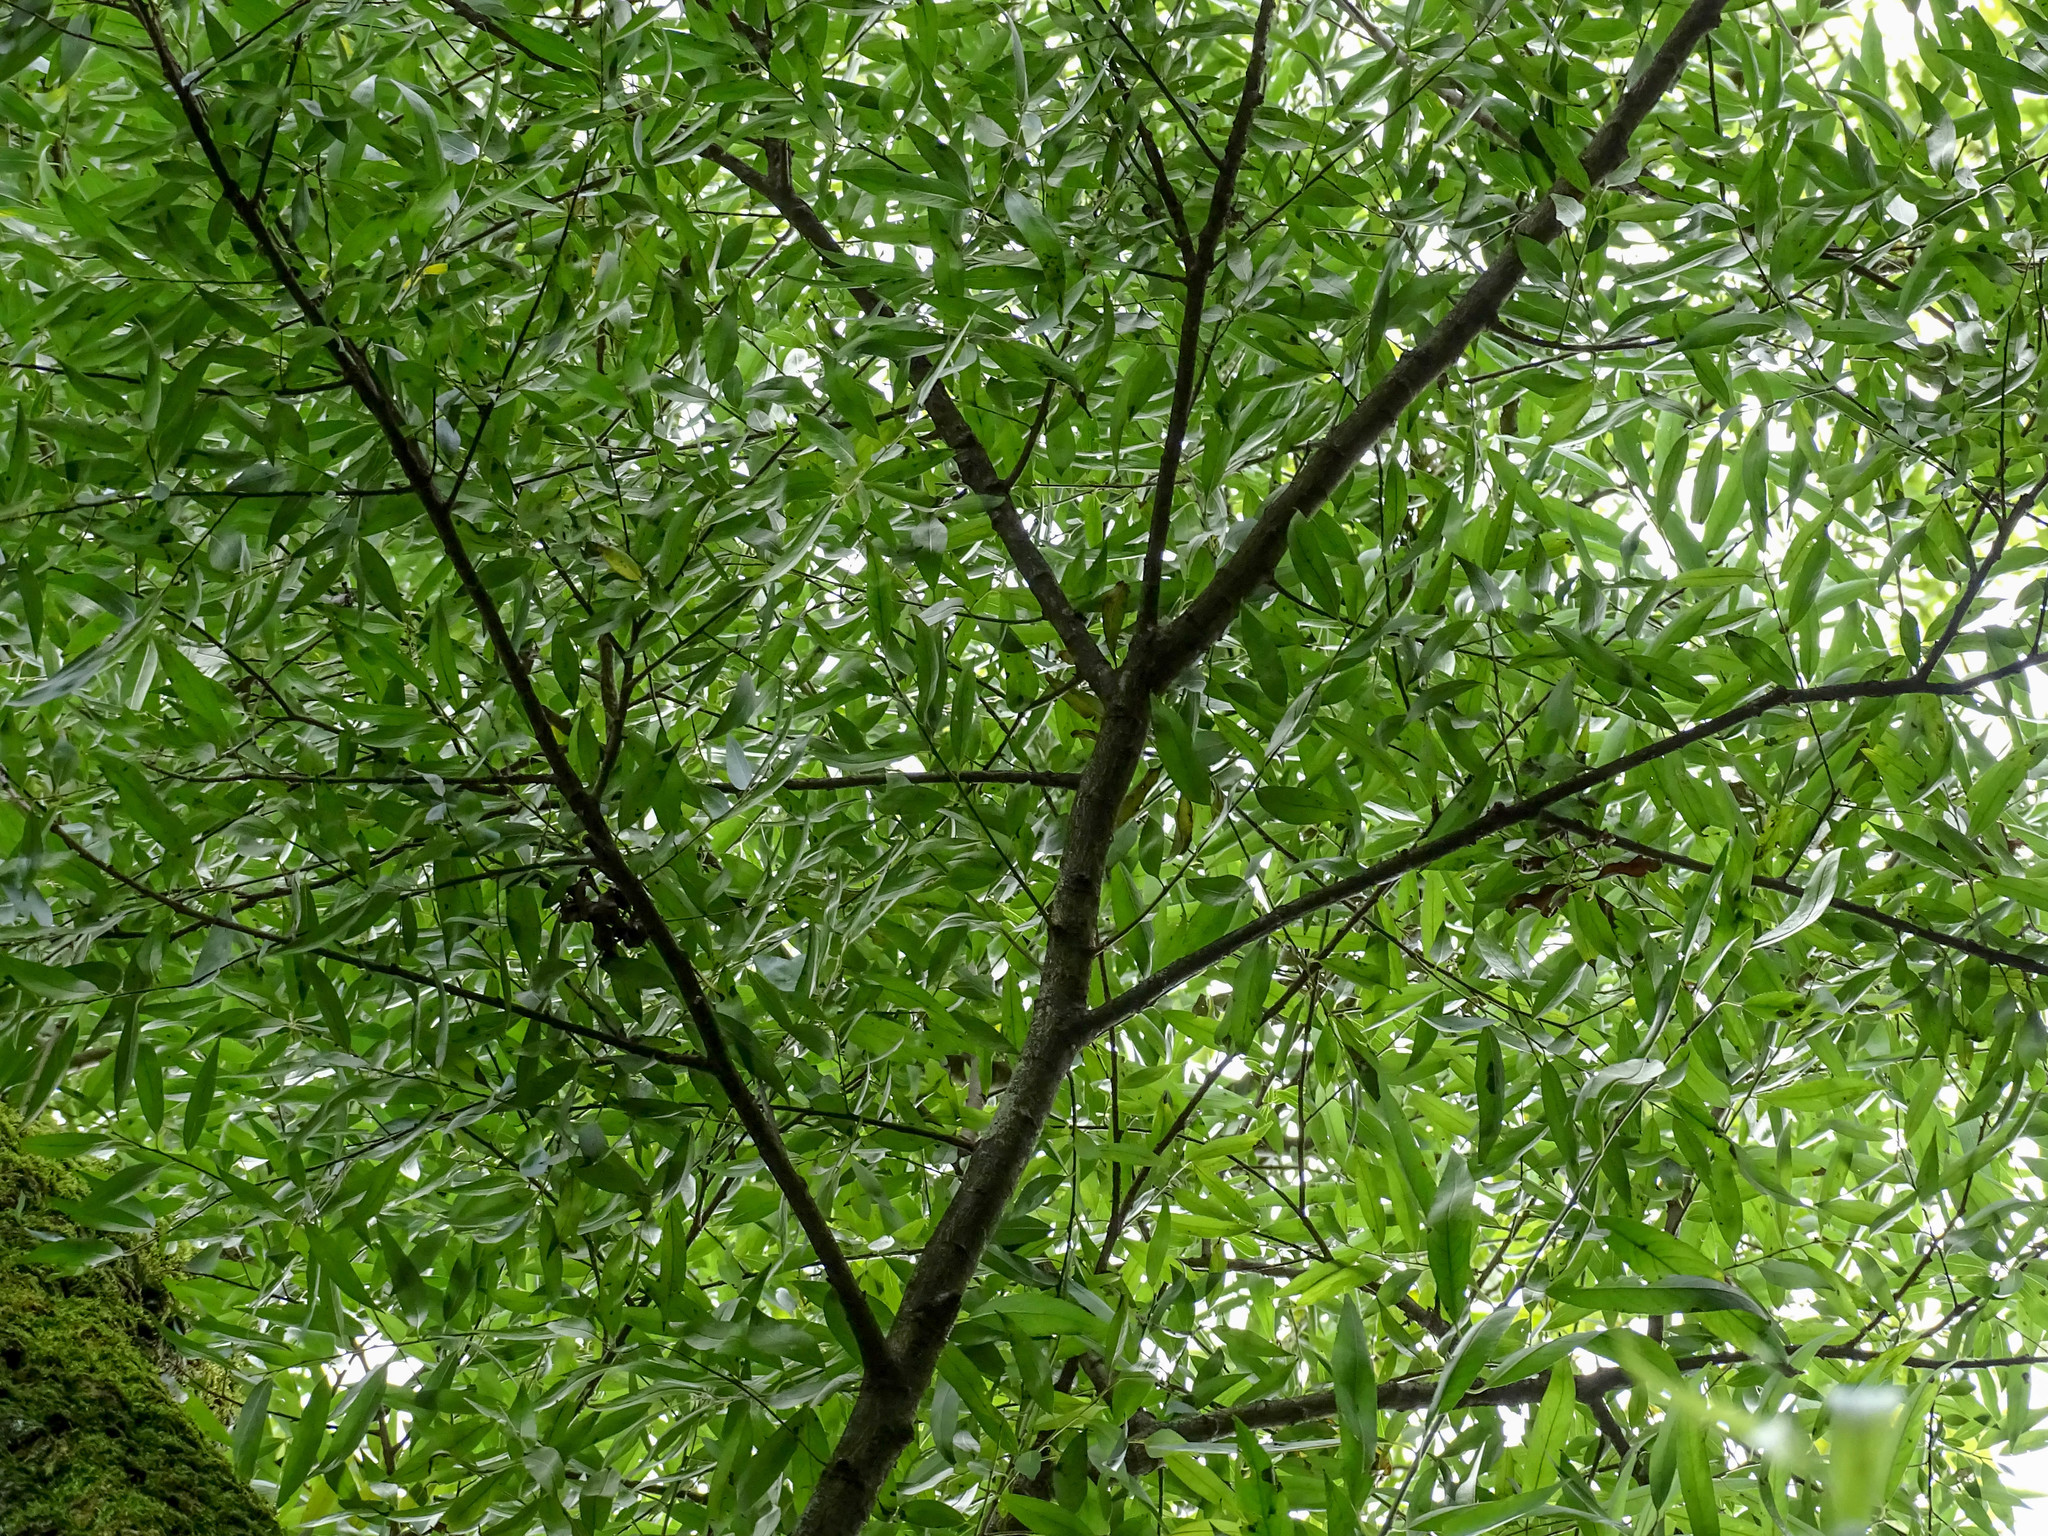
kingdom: Plantae
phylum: Tracheophyta
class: Magnoliopsida
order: Lamiales
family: Oleaceae
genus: Fraxinus
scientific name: Fraxinus excelsior
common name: European ash
